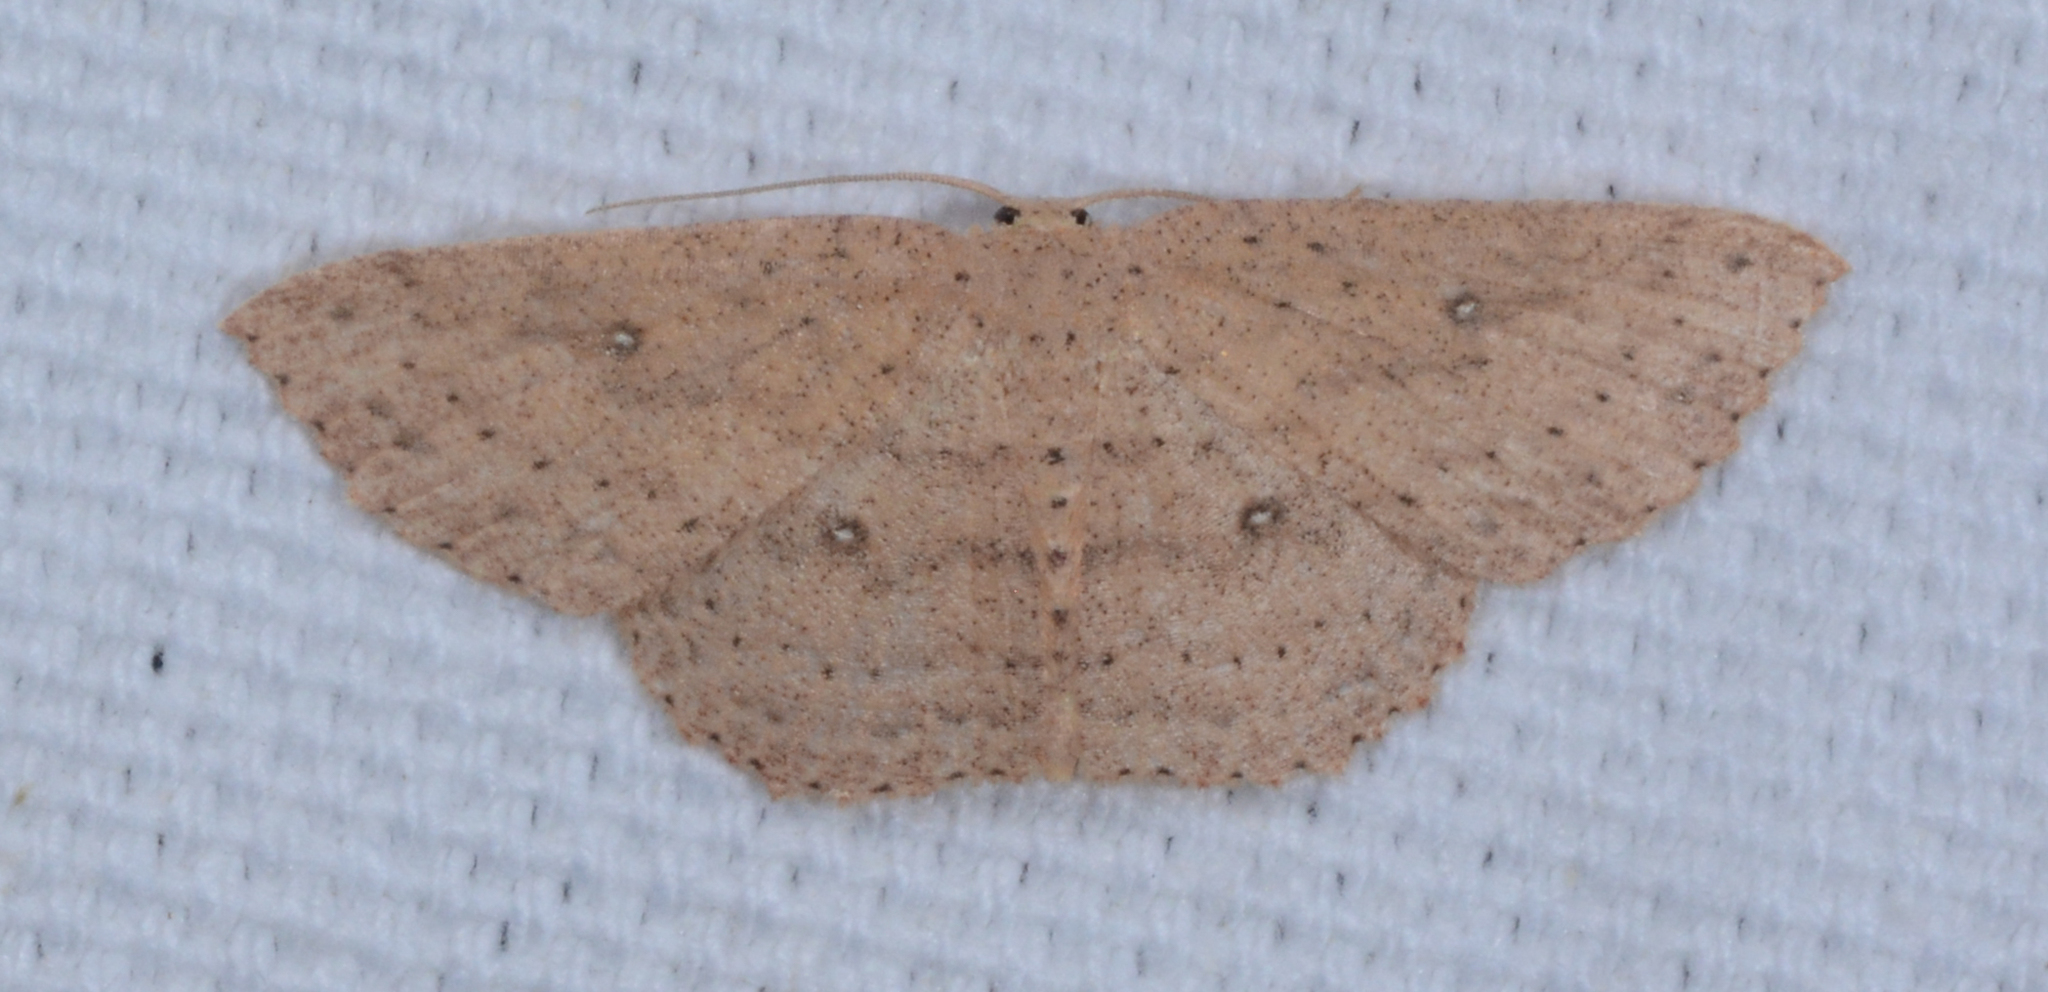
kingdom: Animalia
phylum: Arthropoda
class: Insecta
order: Lepidoptera
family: Geometridae
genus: Cyclophora
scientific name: Cyclophora myrtaria
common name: Waxmyrtle wave moth
